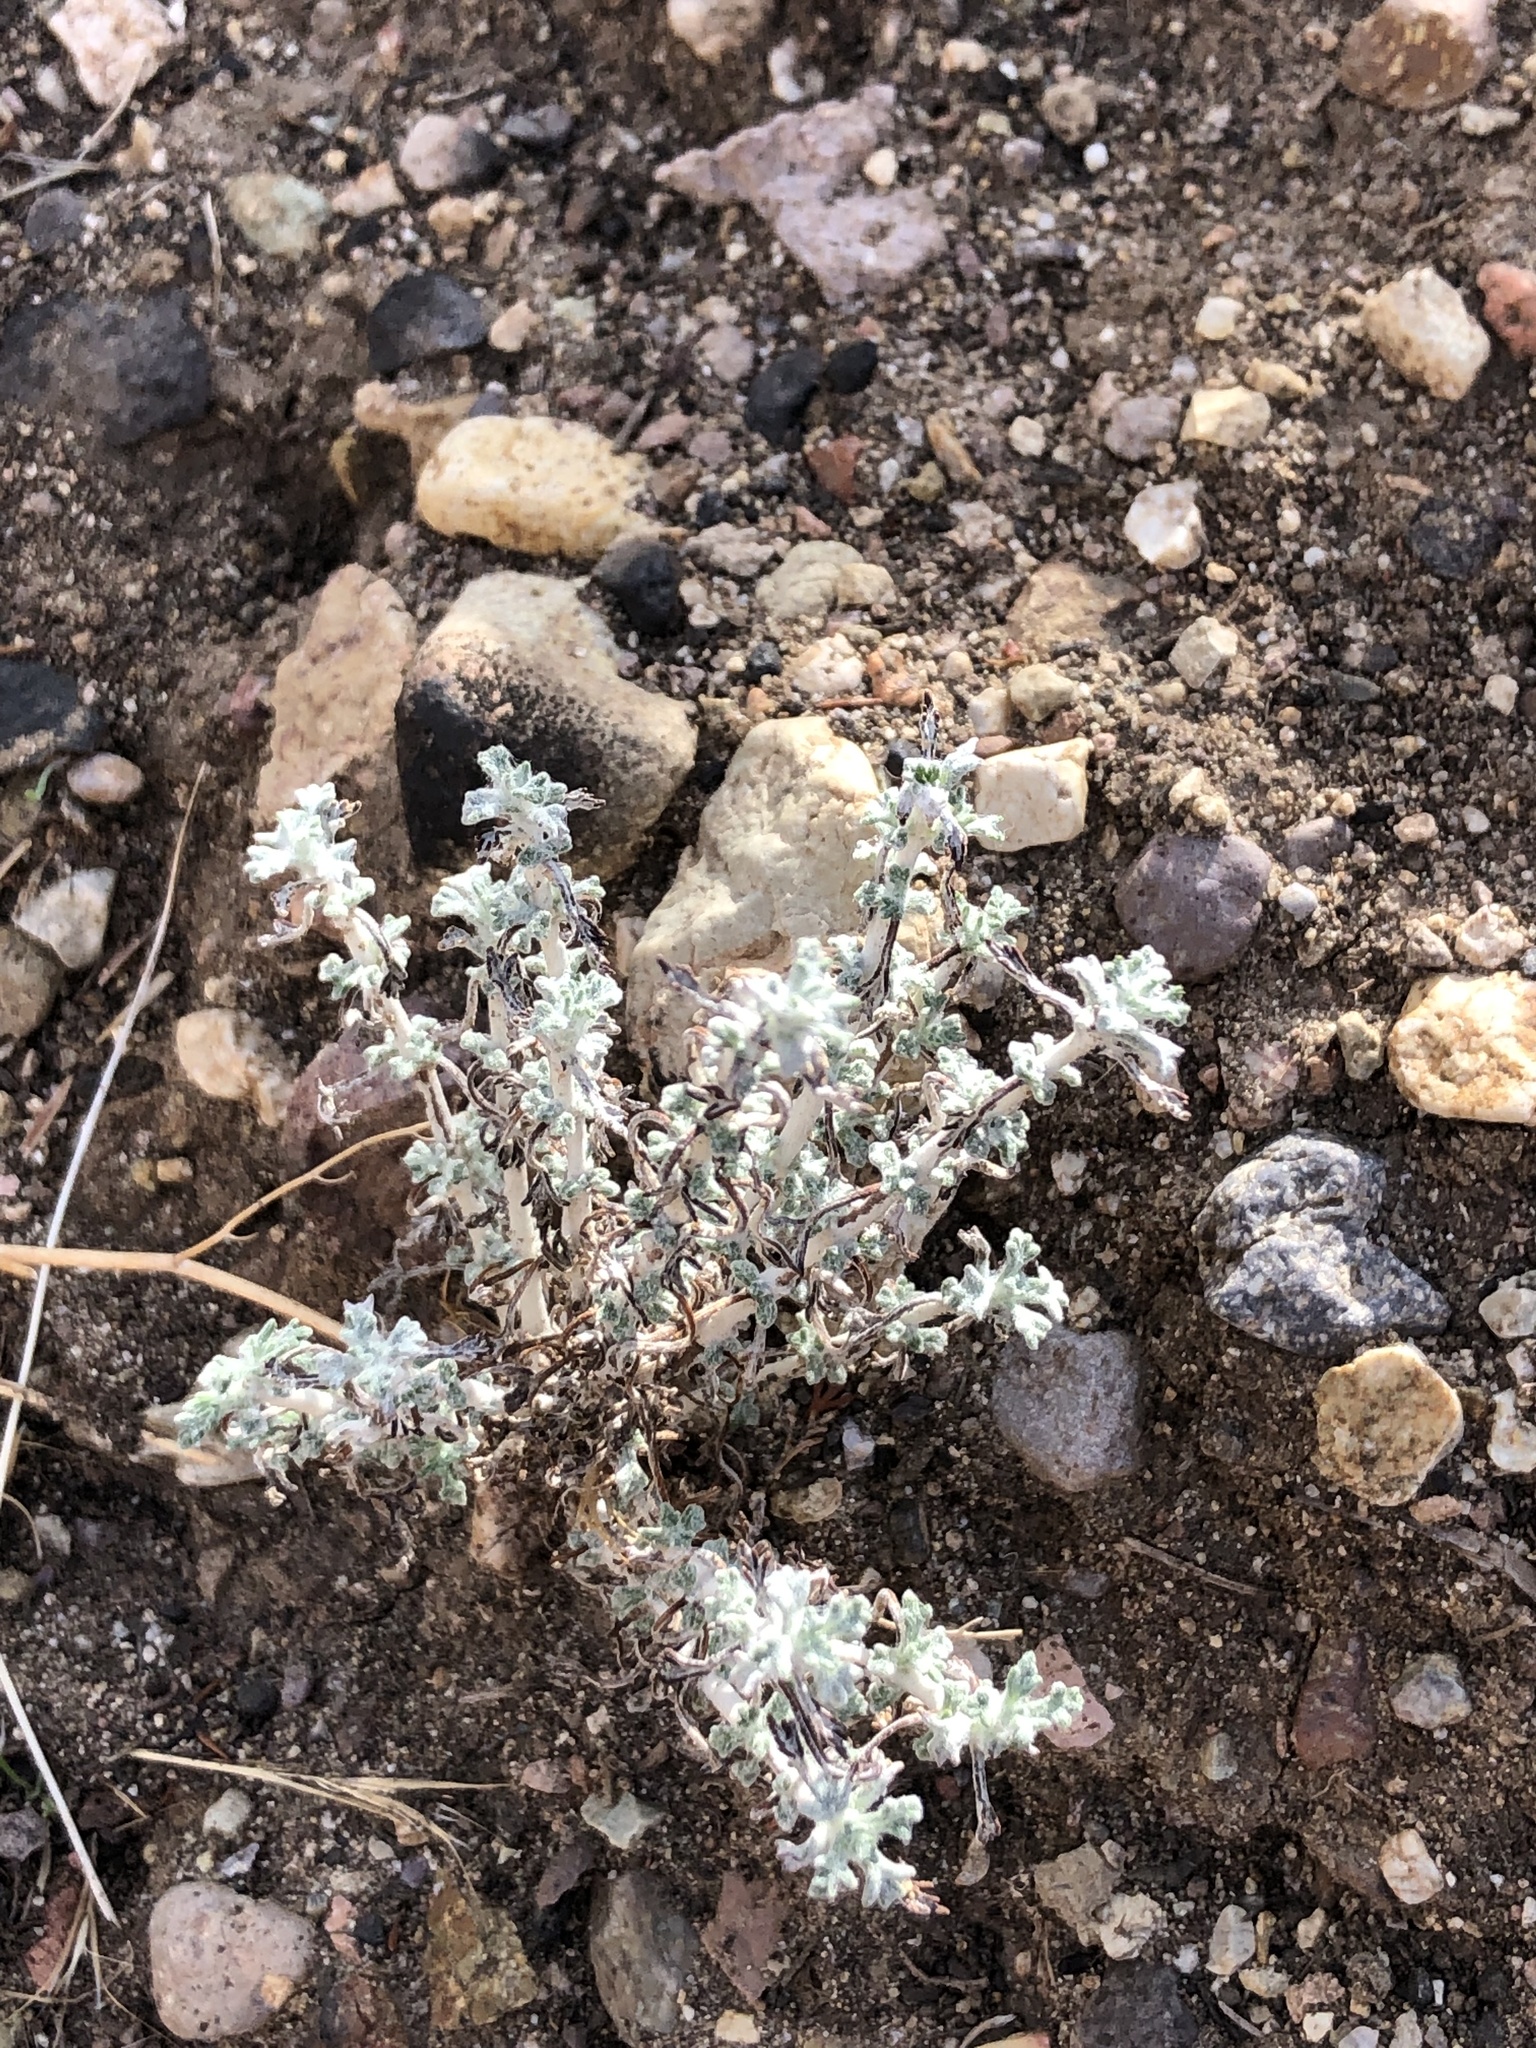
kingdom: Plantae
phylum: Tracheophyta
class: Magnoliopsida
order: Asterales
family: Asteraceae
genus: Eriophyllum
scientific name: Eriophyllum confertiflorum
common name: Golden-yarrow
